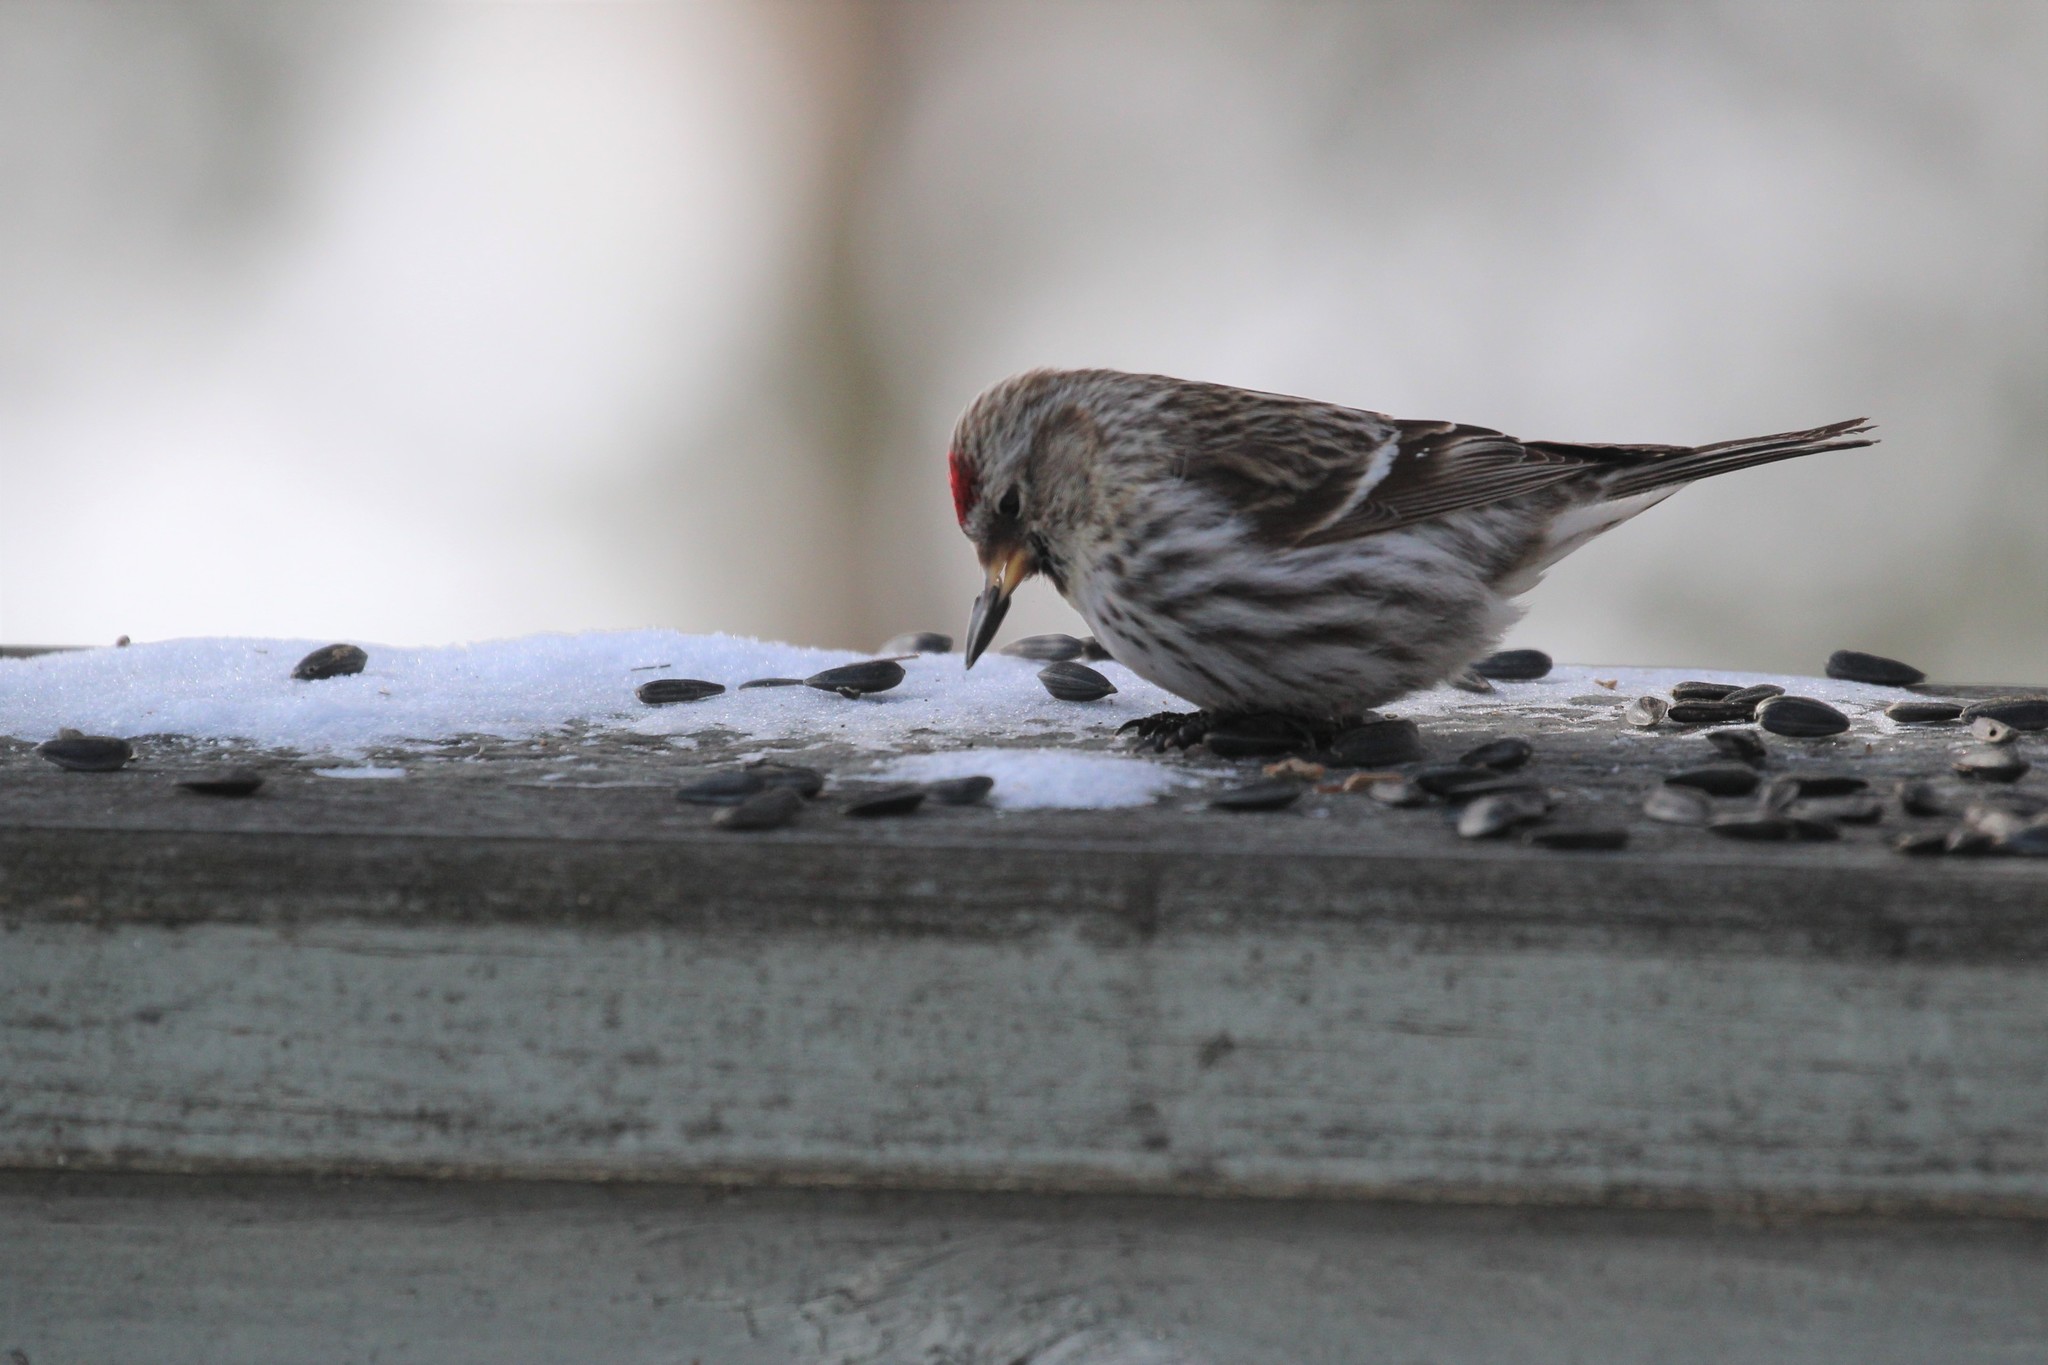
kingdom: Animalia
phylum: Chordata
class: Aves
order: Passeriformes
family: Fringillidae
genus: Acanthis
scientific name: Acanthis flammea
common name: Common redpoll
